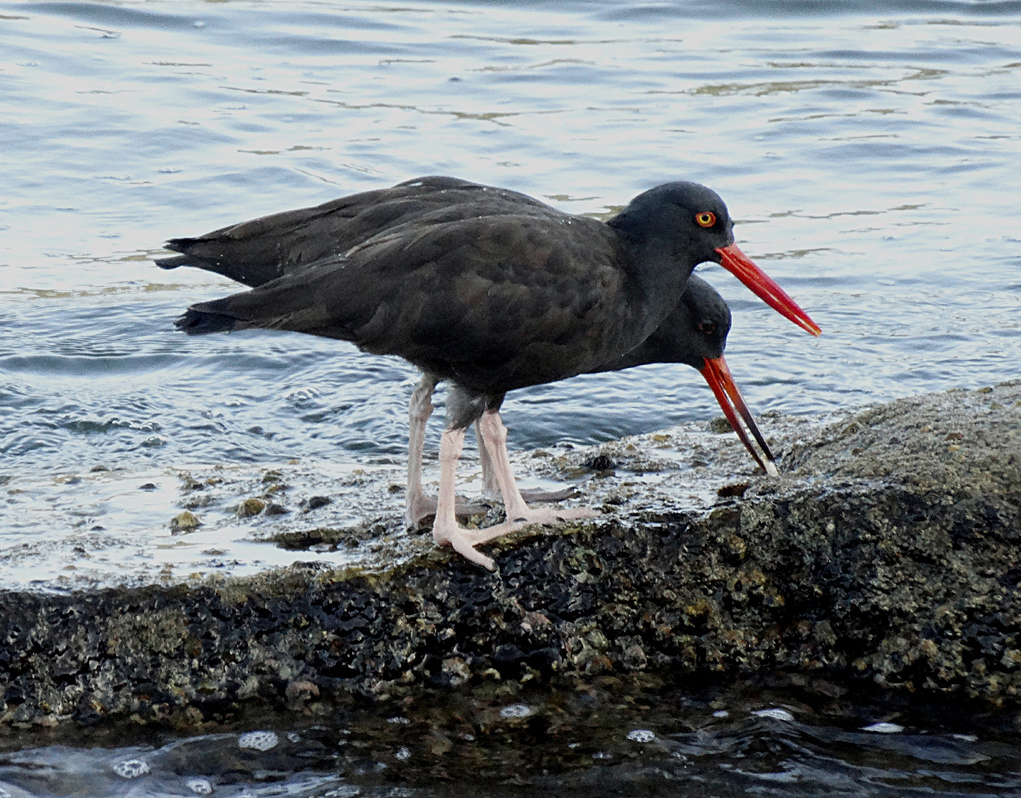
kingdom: Animalia
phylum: Chordata
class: Aves
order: Charadriiformes
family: Haematopodidae
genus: Haematopus
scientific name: Haematopus bachmani
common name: Black oystercatcher
